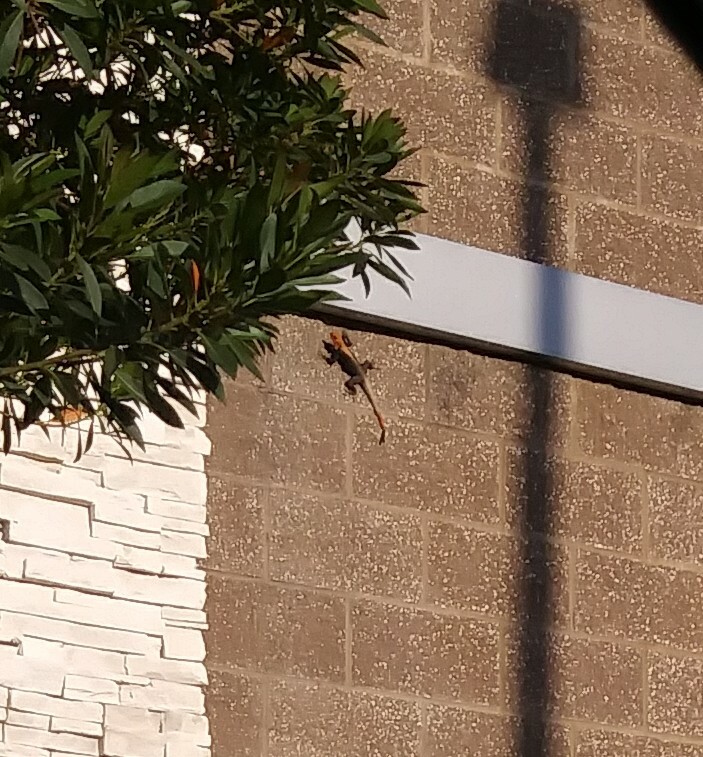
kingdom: Animalia
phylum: Chordata
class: Squamata
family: Agamidae
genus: Agama
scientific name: Agama picticauda
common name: Red-headed agama
